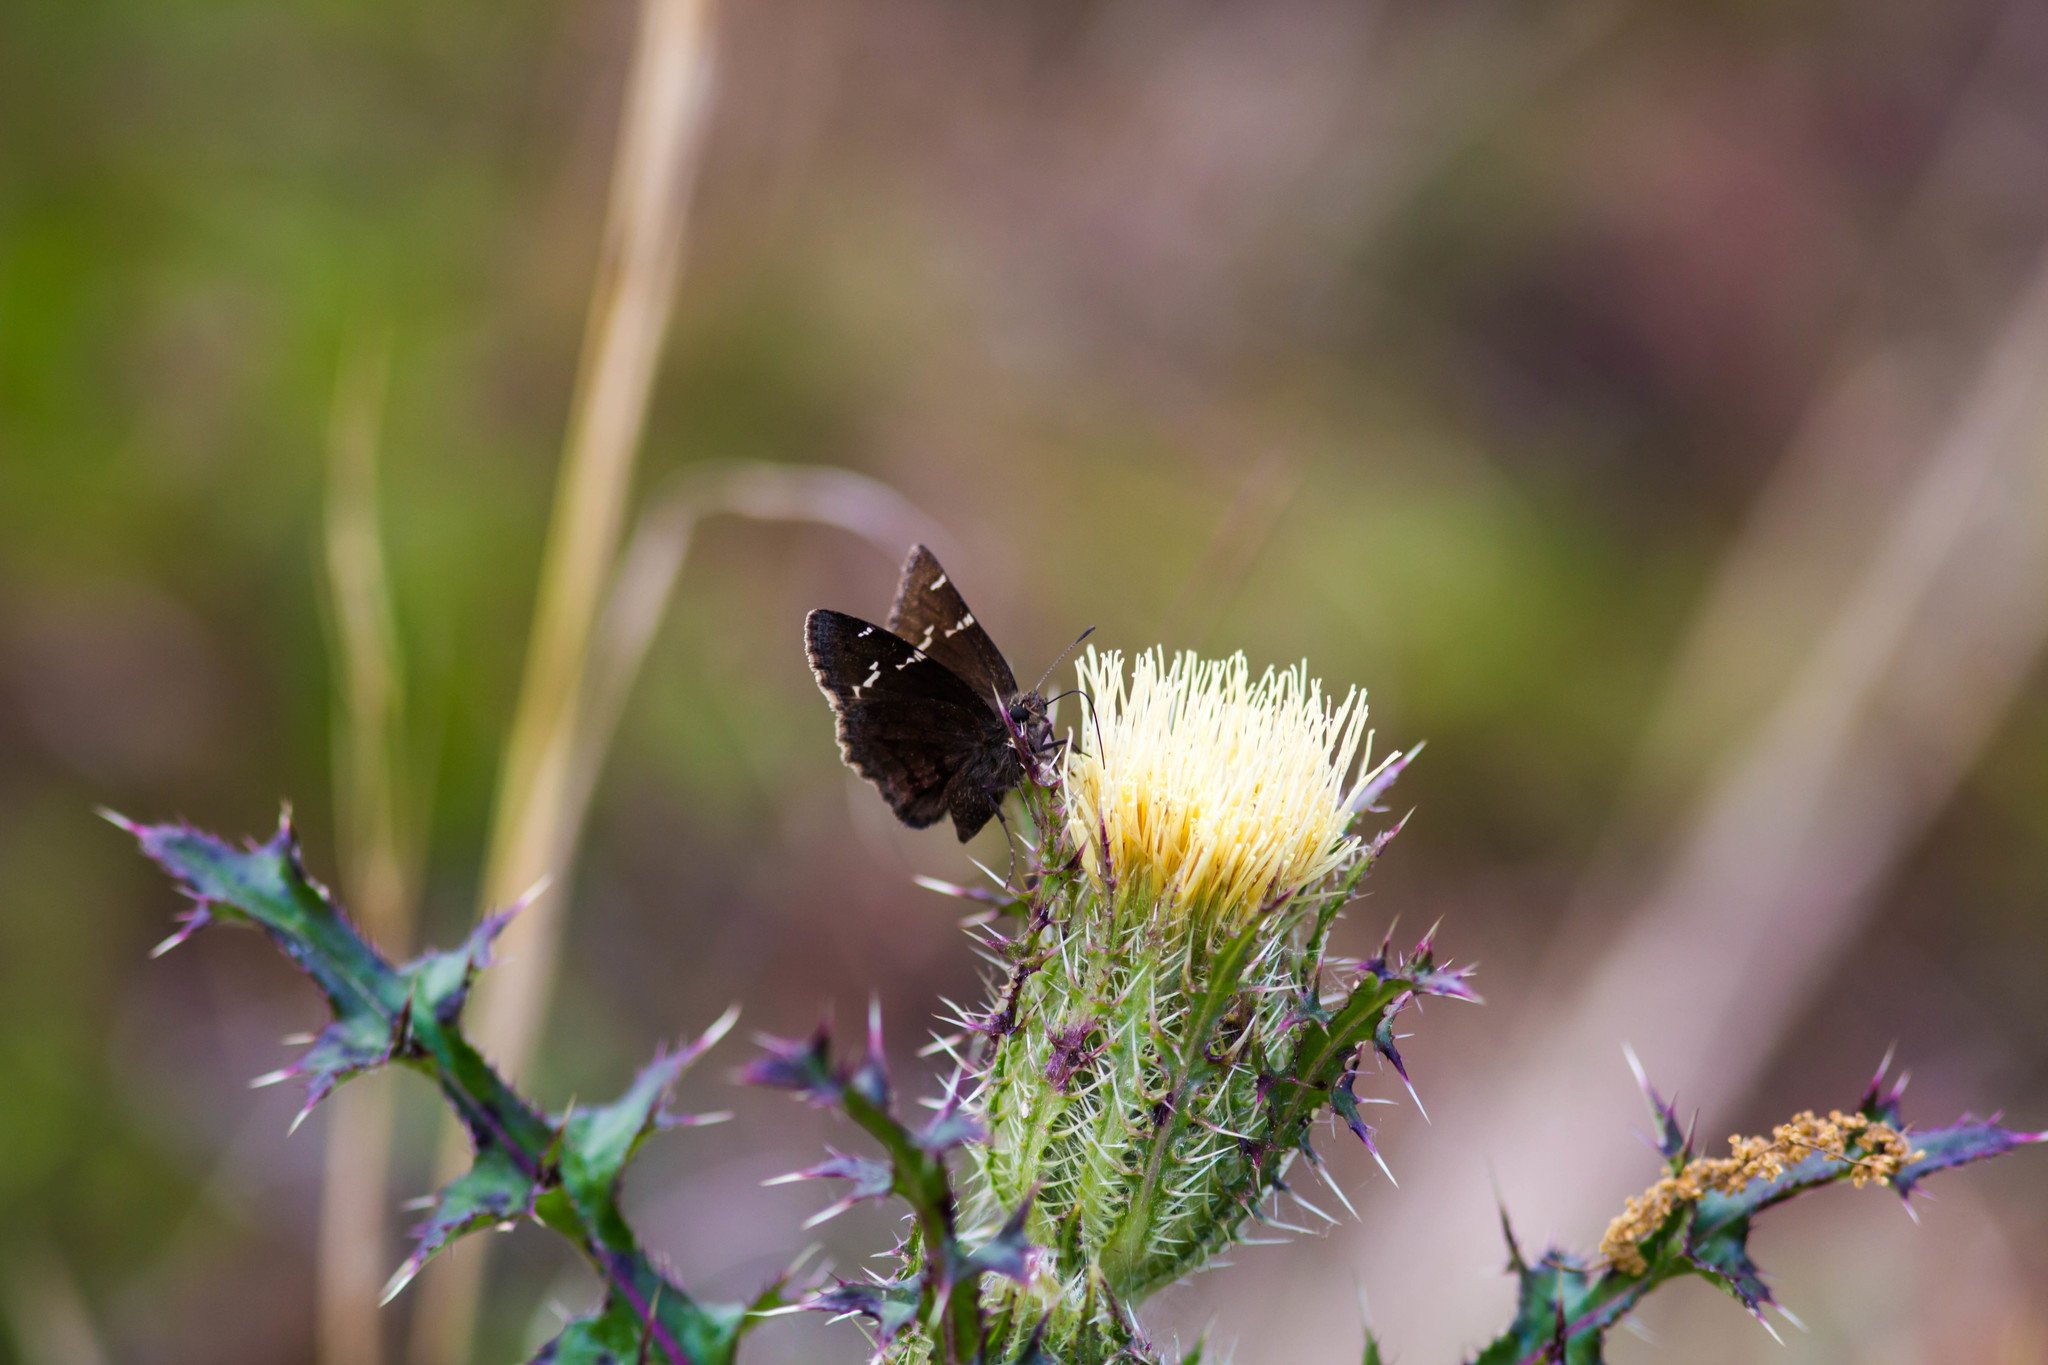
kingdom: Animalia
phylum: Arthropoda
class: Insecta
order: Lepidoptera
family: Hesperiidae
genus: Thorybes
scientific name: Thorybes daunus
